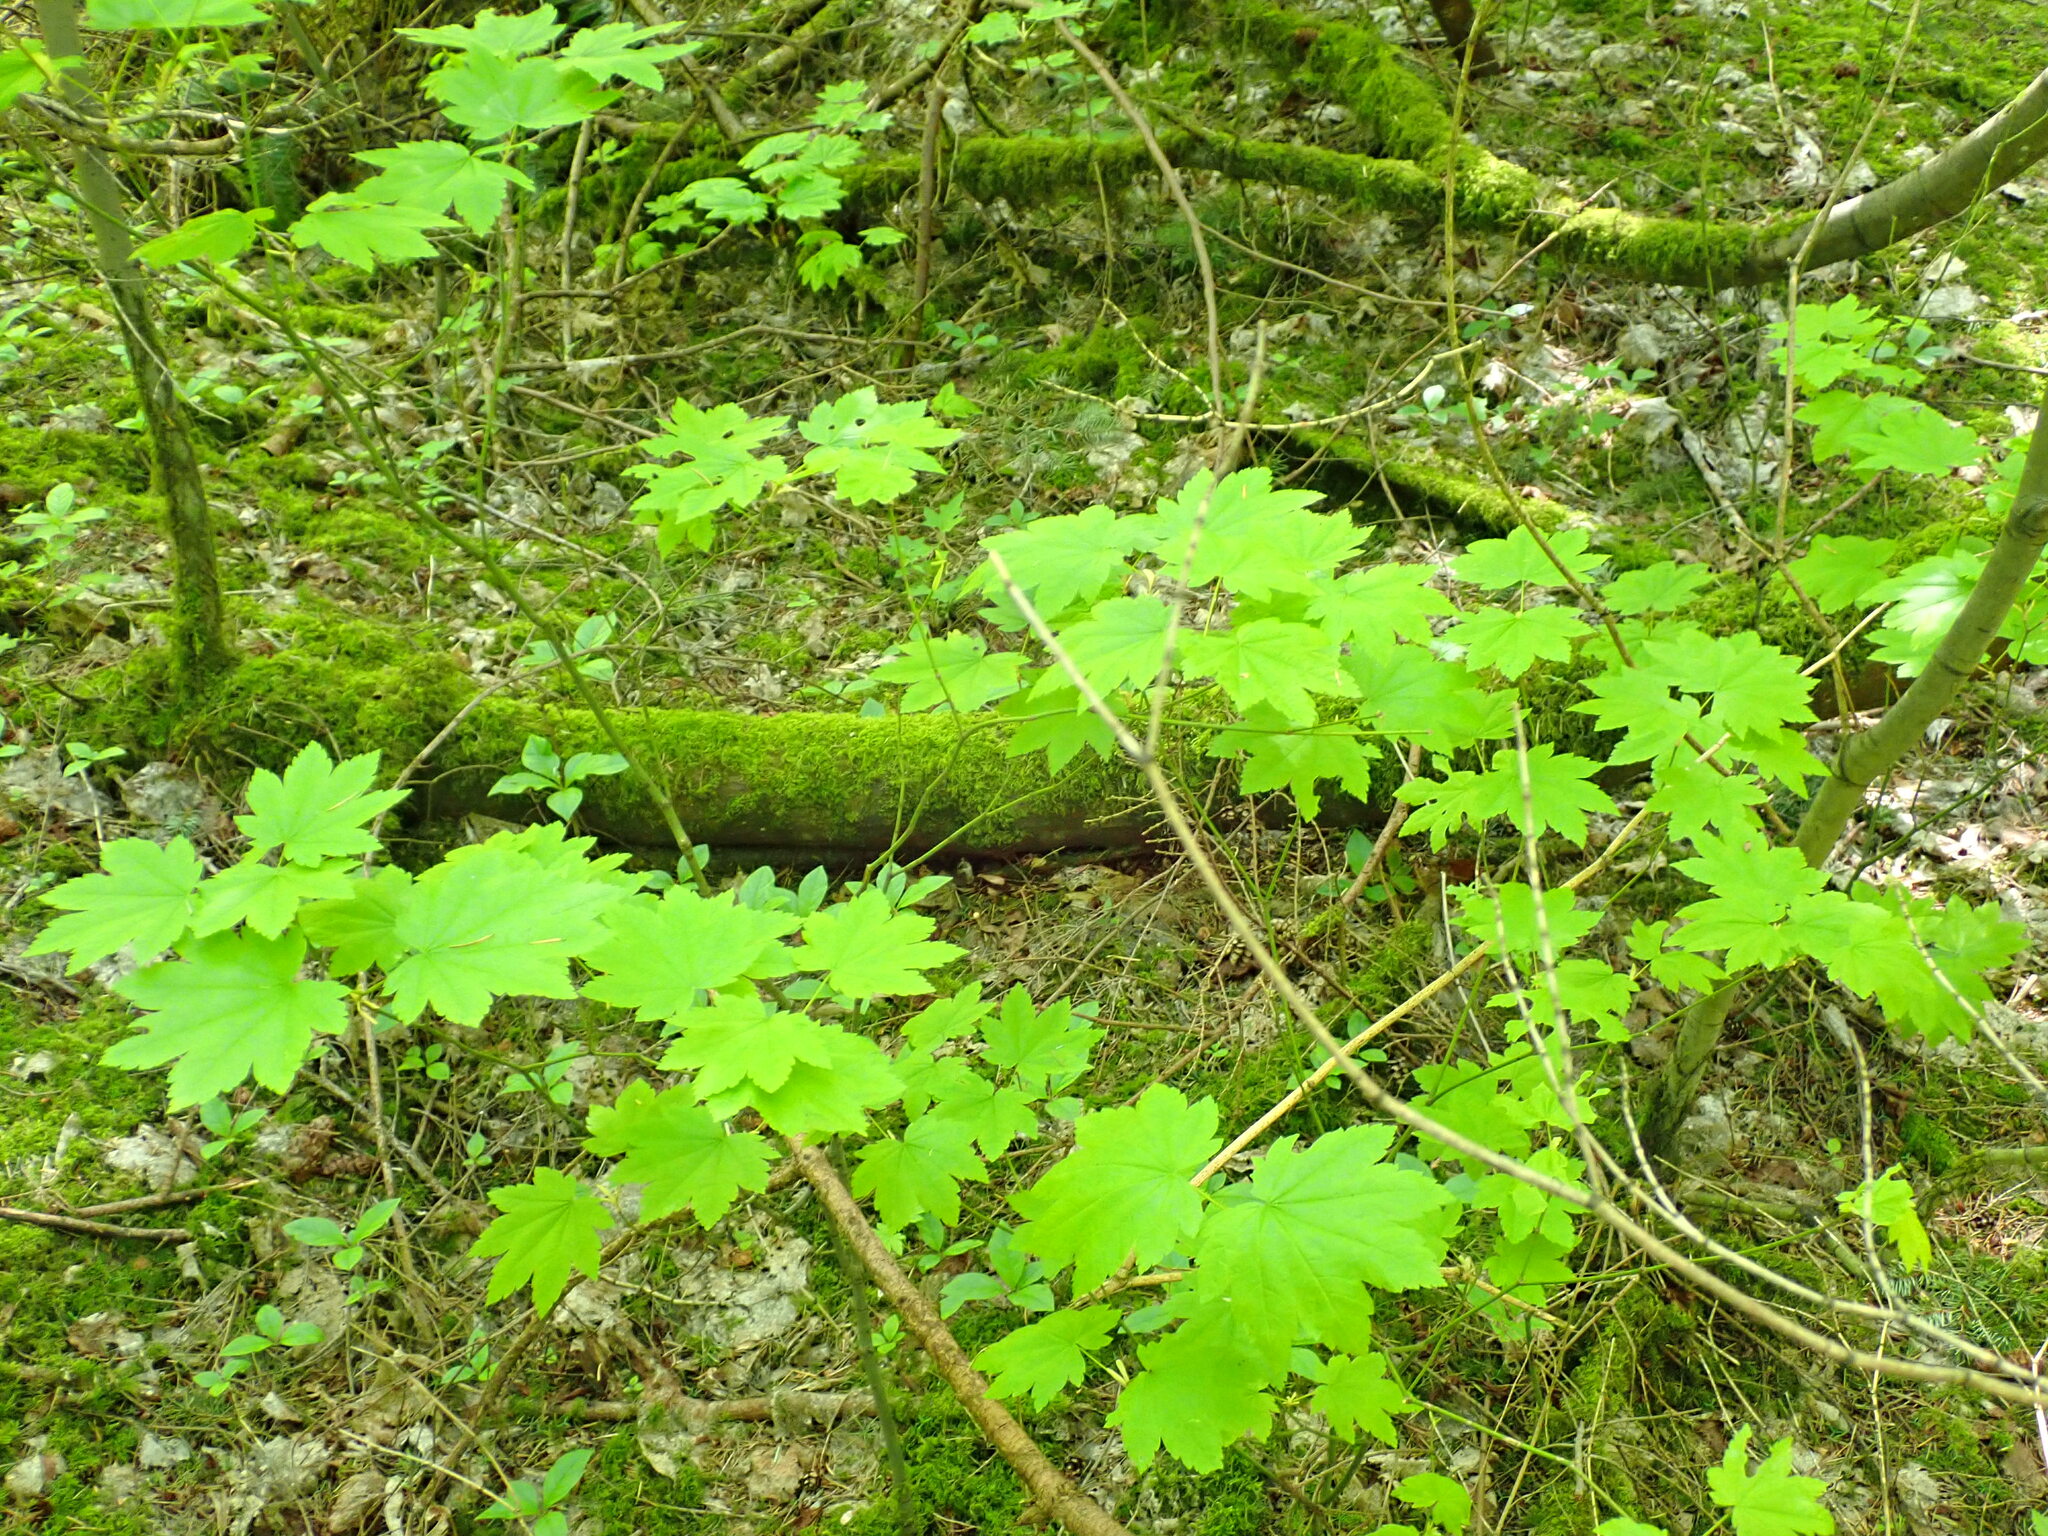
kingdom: Plantae
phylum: Tracheophyta
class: Magnoliopsida
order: Sapindales
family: Sapindaceae
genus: Acer
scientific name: Acer circinatum
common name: Vine maple
